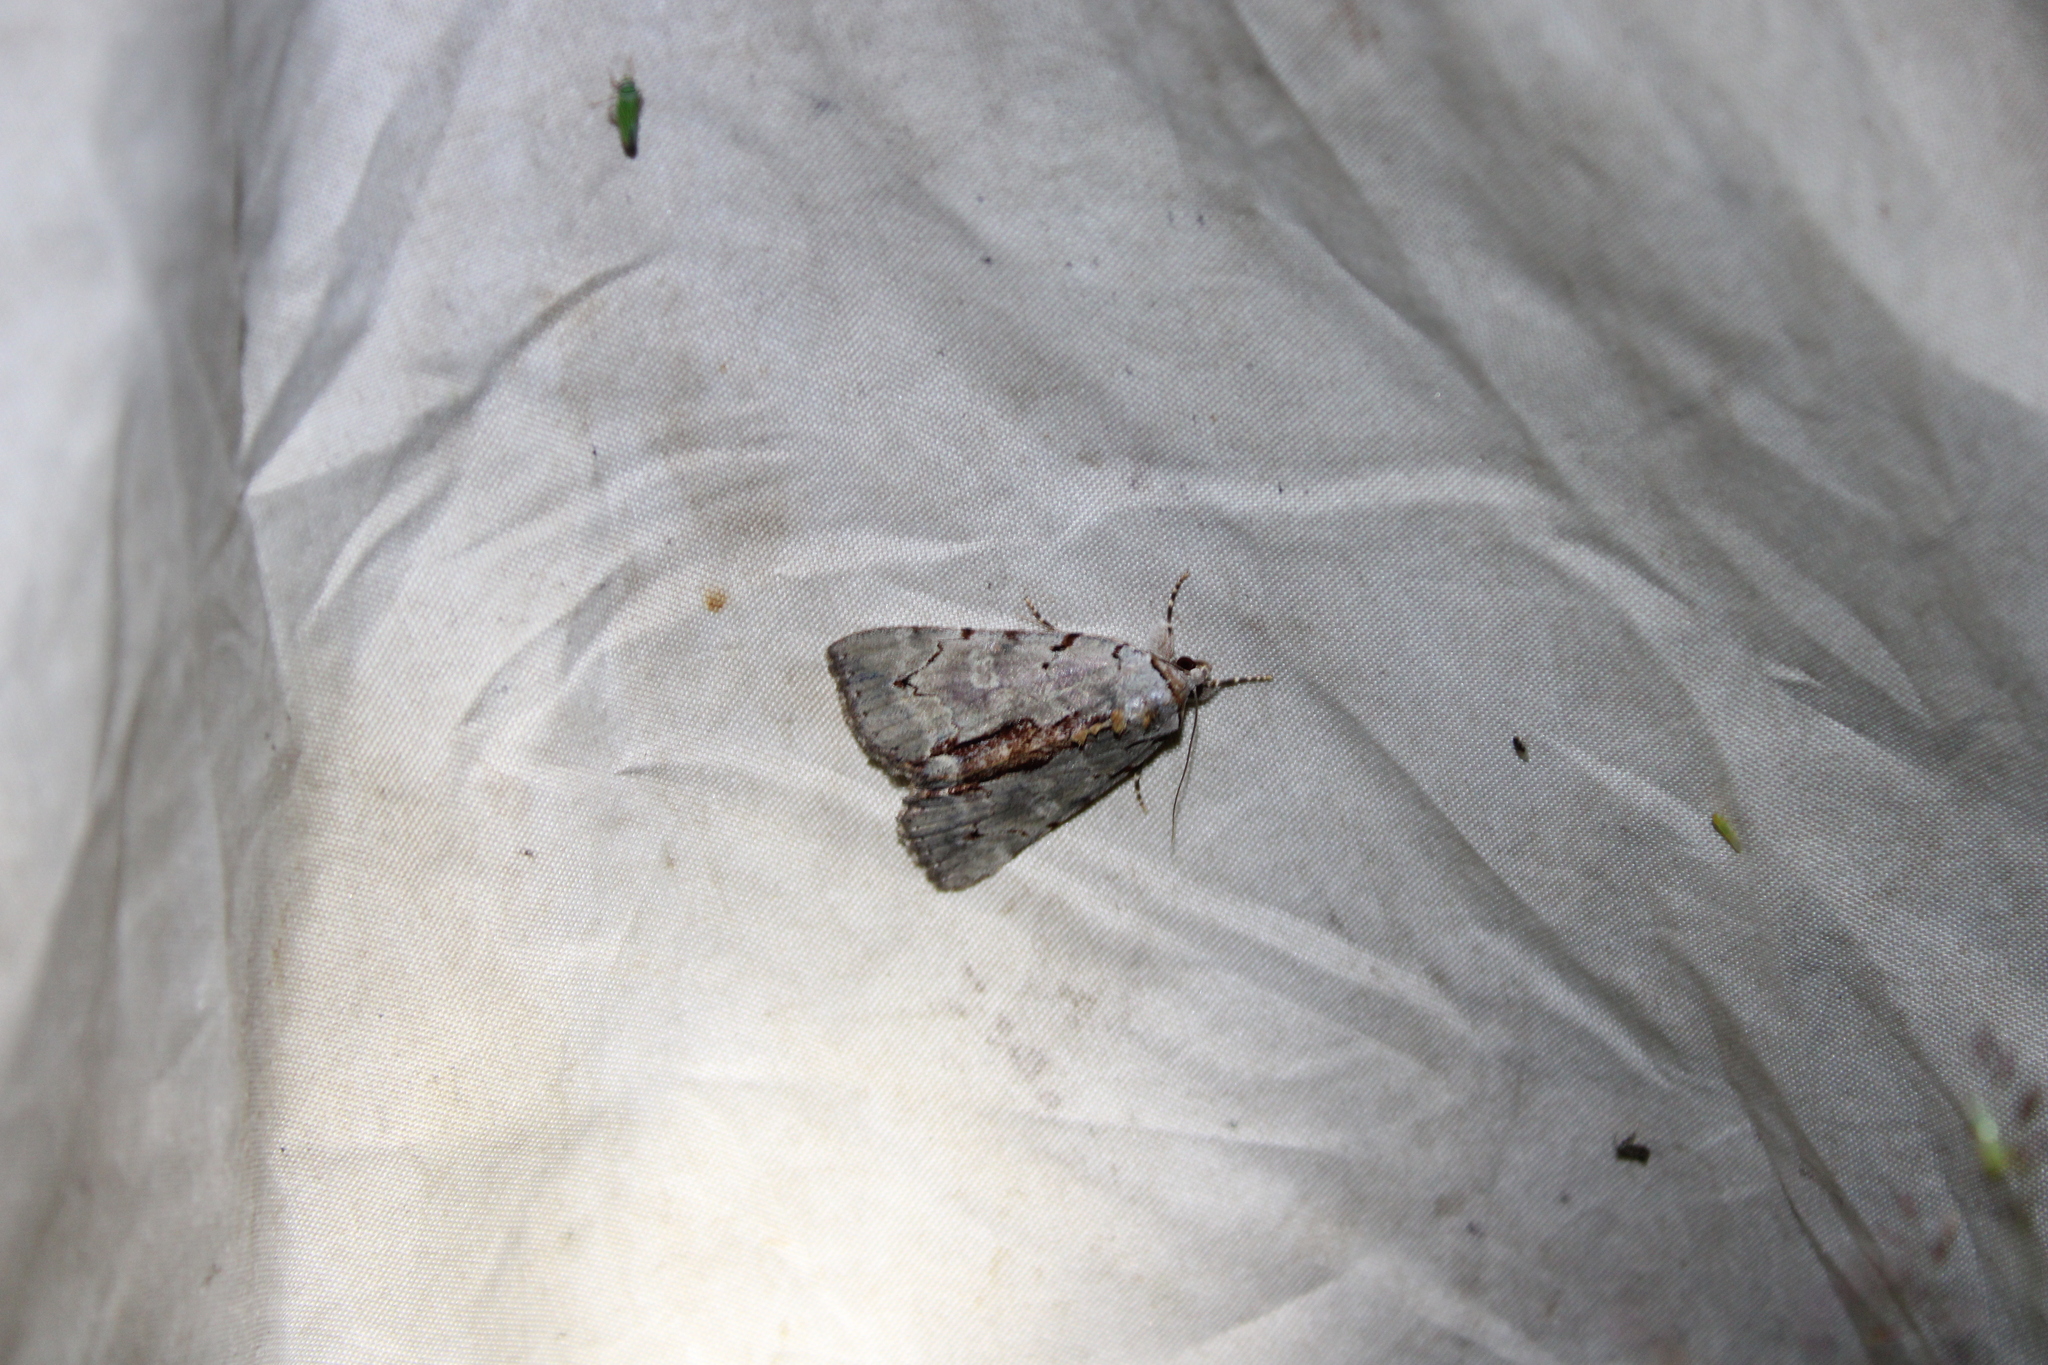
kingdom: Animalia
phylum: Arthropoda
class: Insecta
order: Lepidoptera
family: Erebidae
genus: Catocala
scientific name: Catocala grynea
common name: Woody underwing
